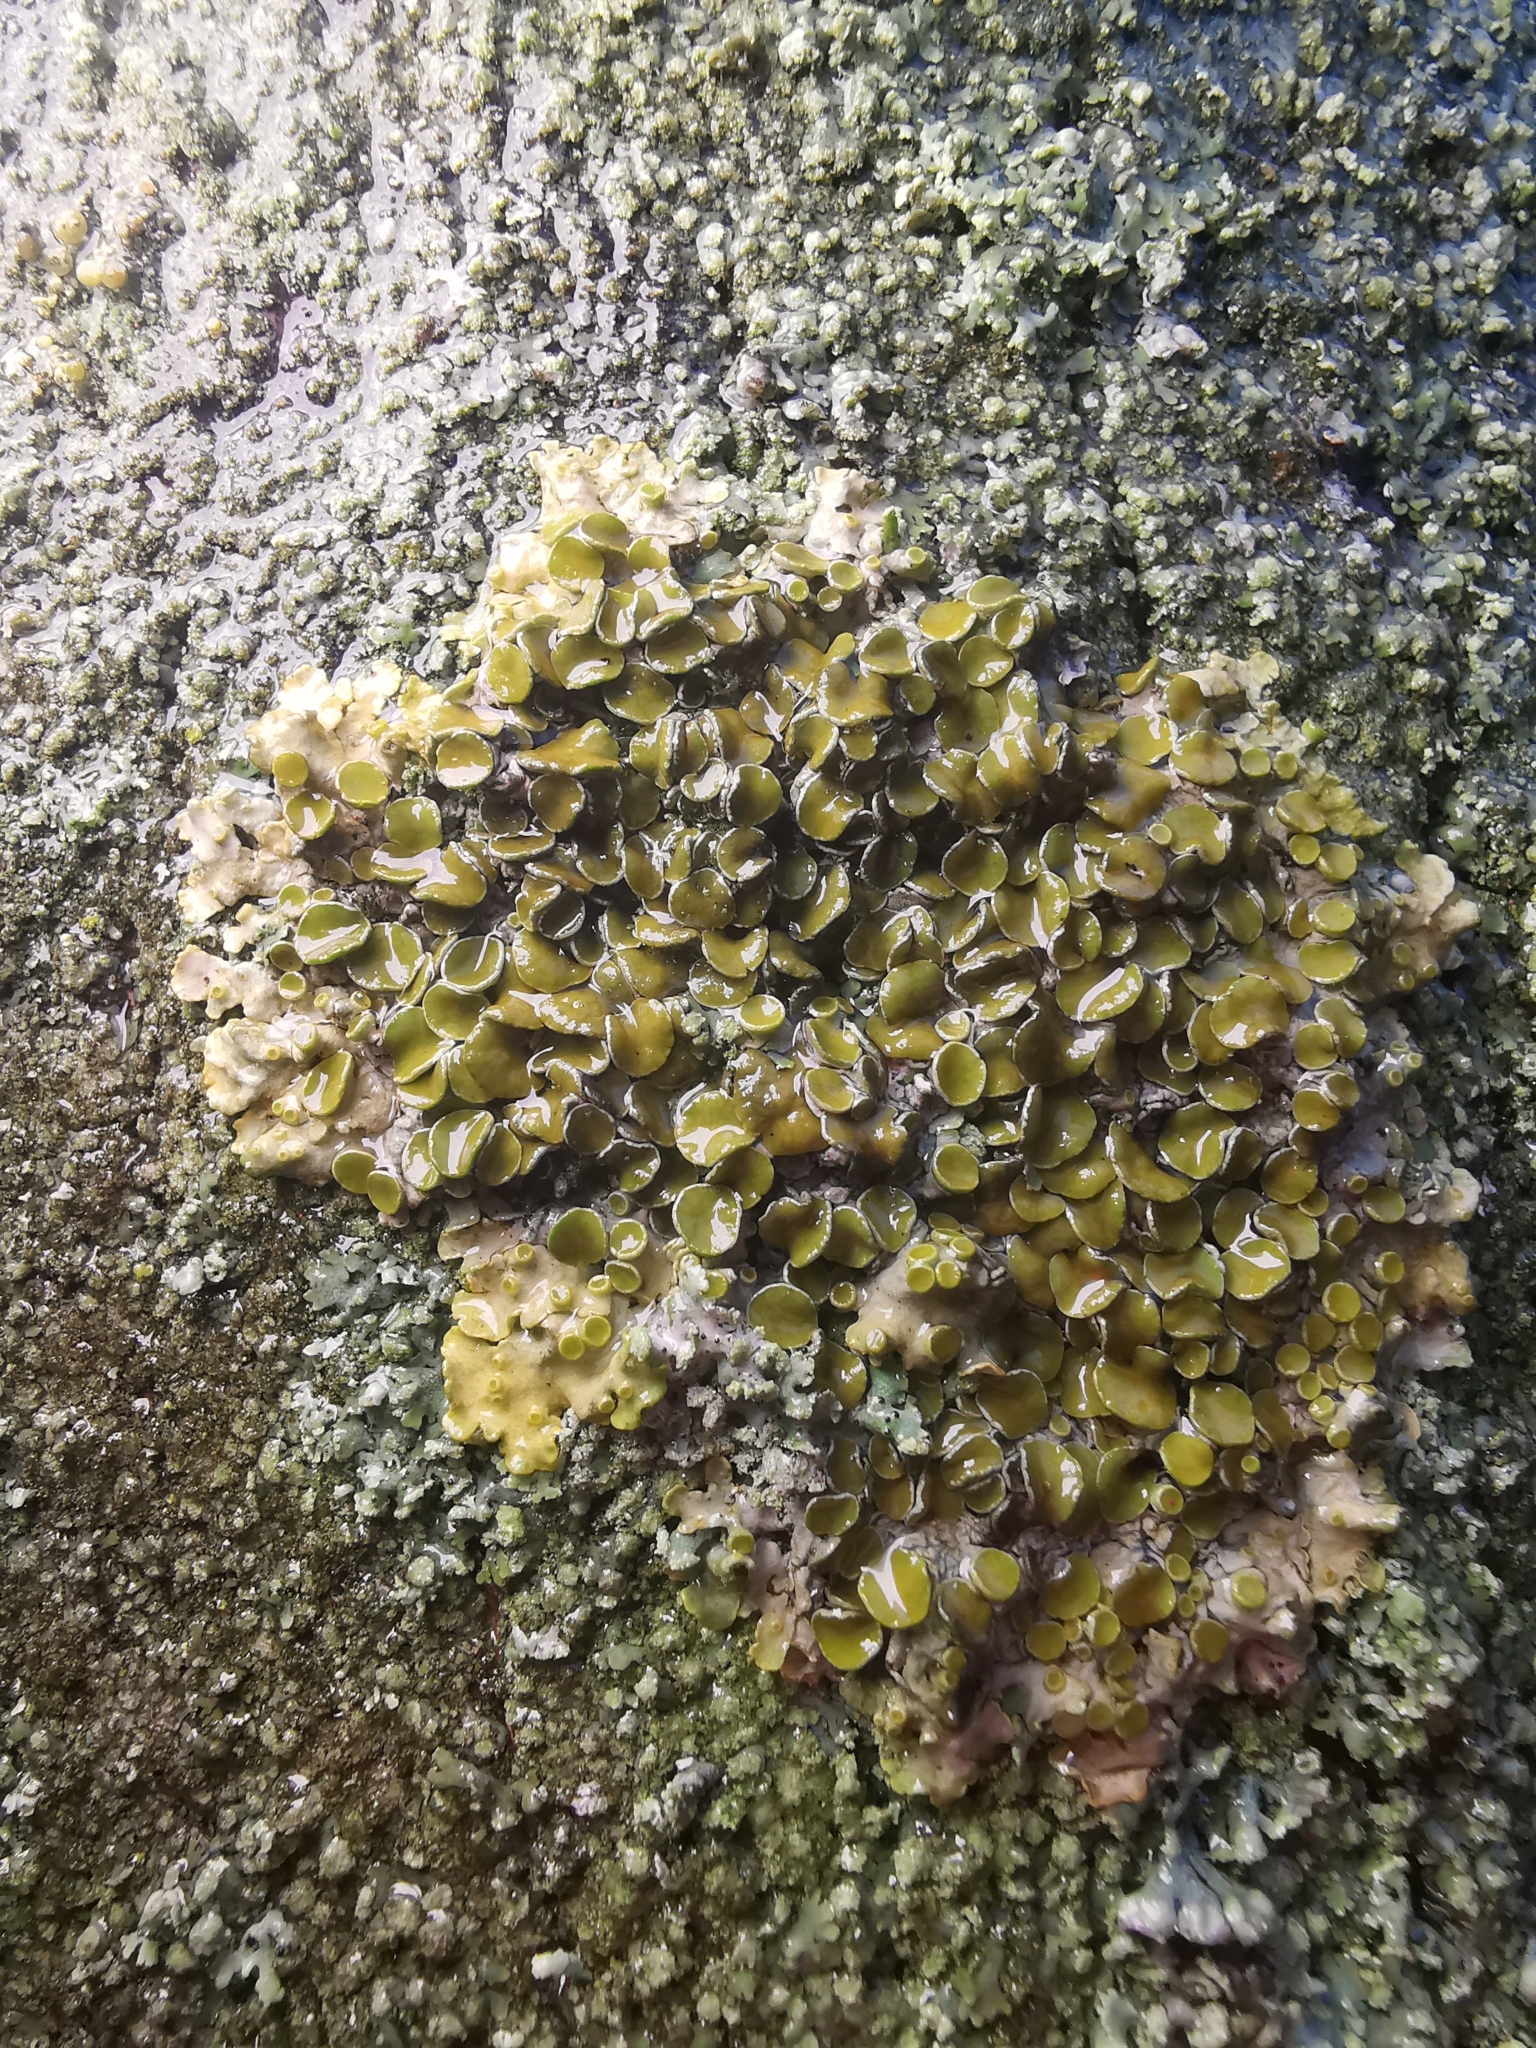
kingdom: Fungi
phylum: Ascomycota
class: Lecanoromycetes
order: Teloschistales
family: Teloschistaceae
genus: Xanthoria
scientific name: Xanthoria parietina
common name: Common orange lichen
